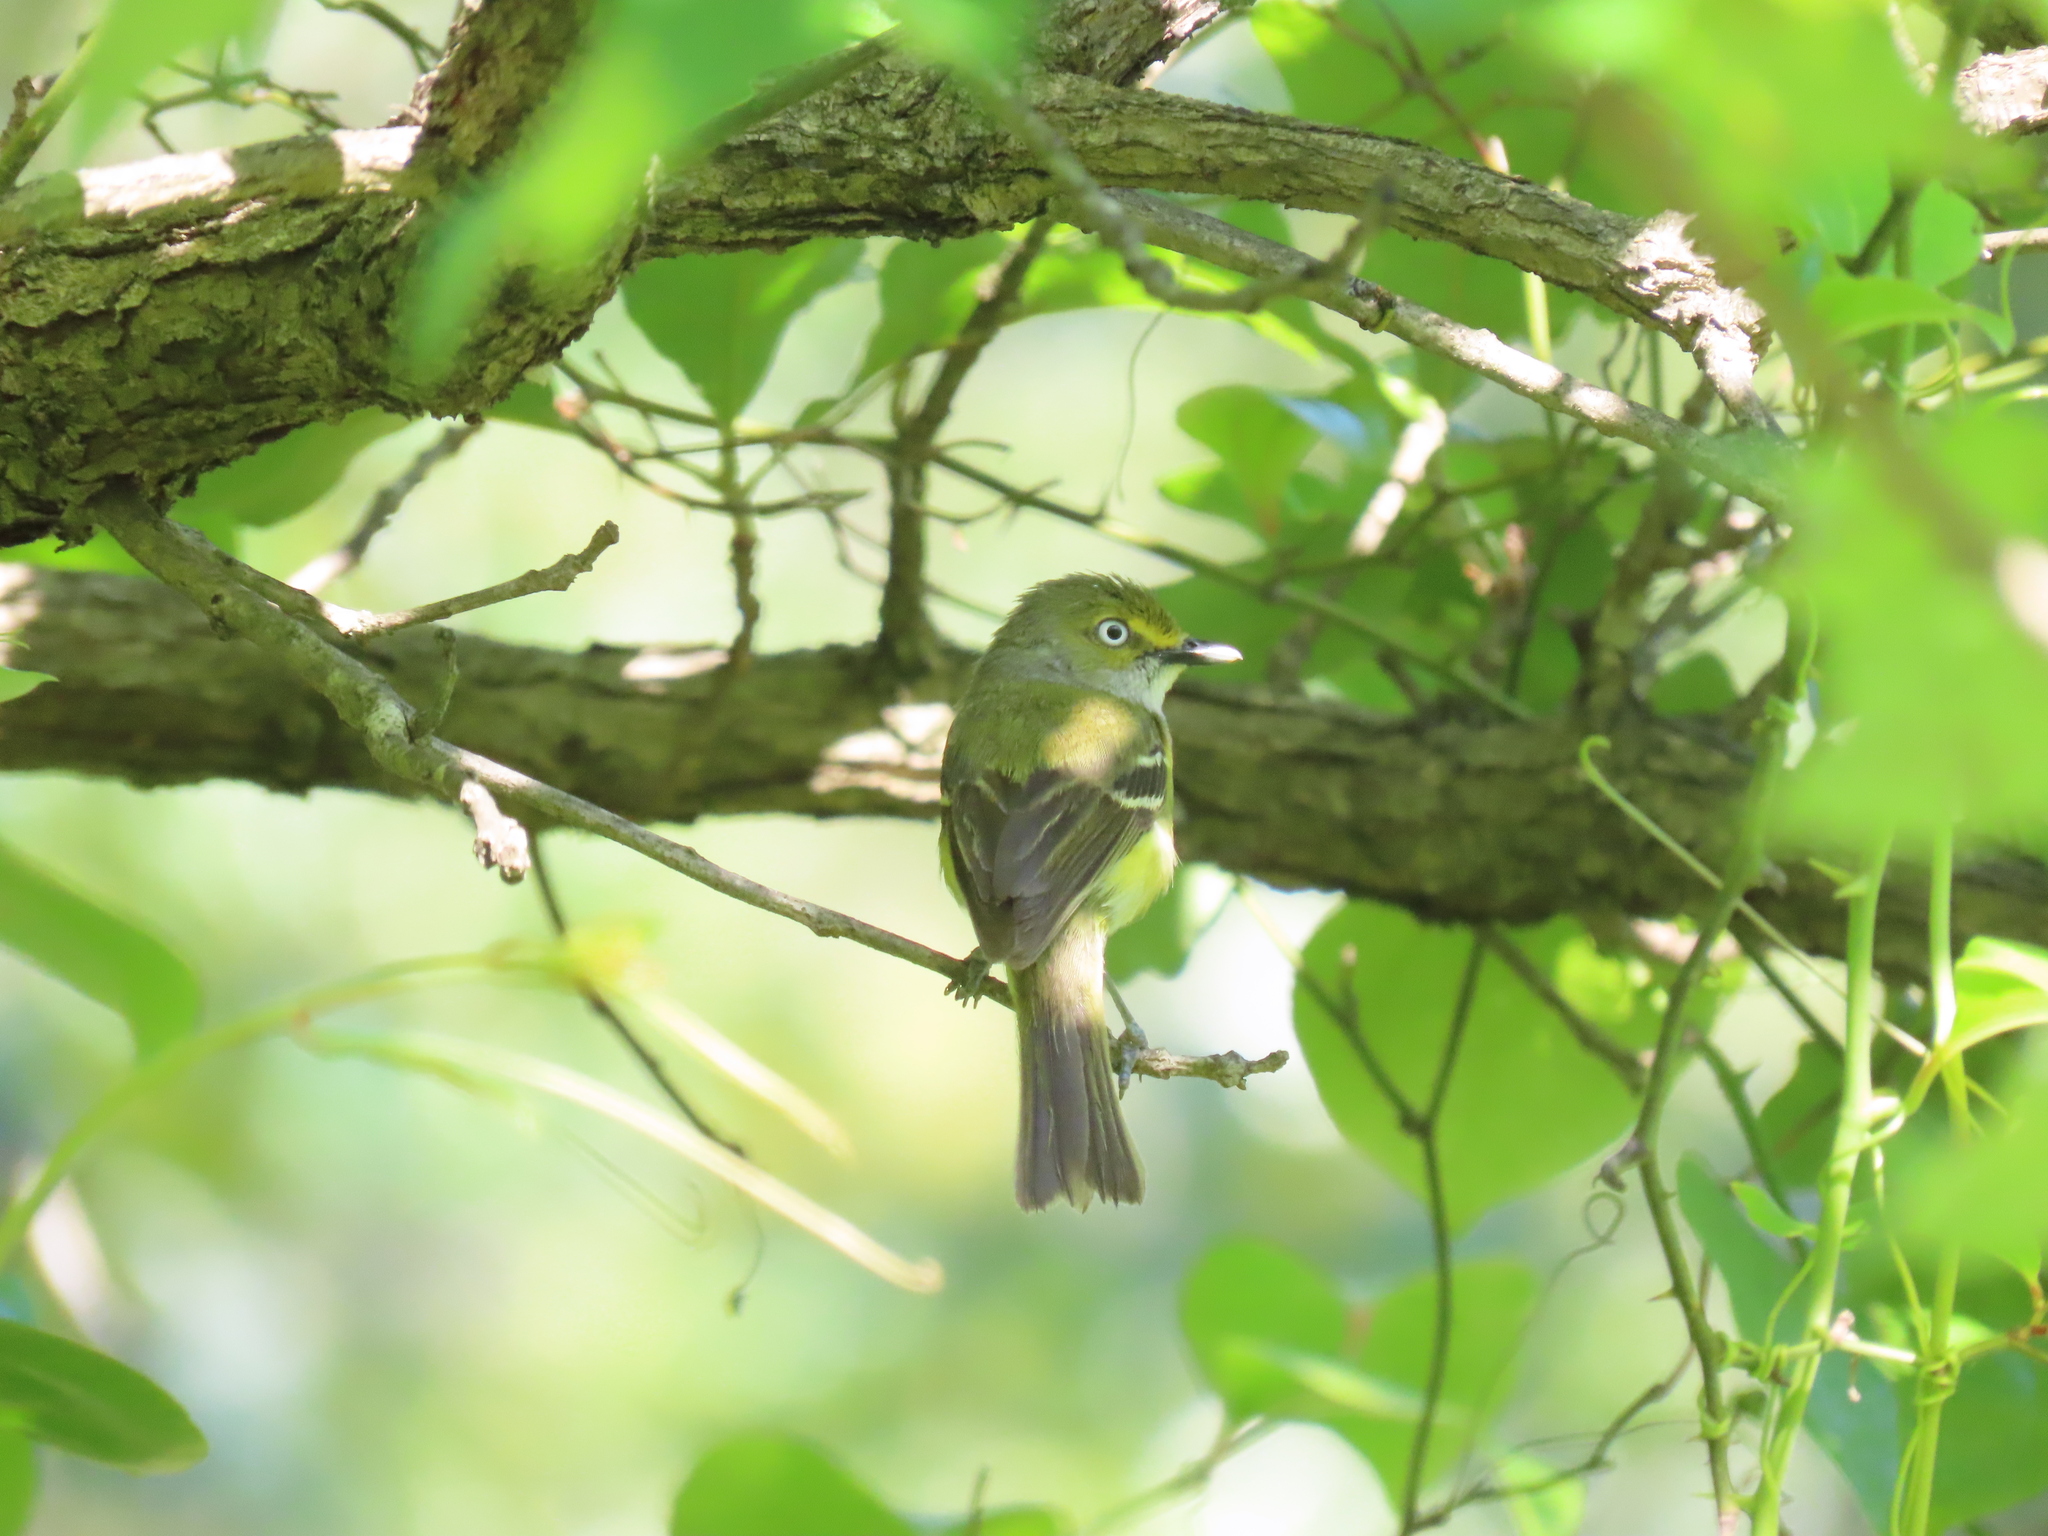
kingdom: Animalia
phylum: Chordata
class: Aves
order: Passeriformes
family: Vireonidae
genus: Vireo
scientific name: Vireo griseus
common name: White-eyed vireo
